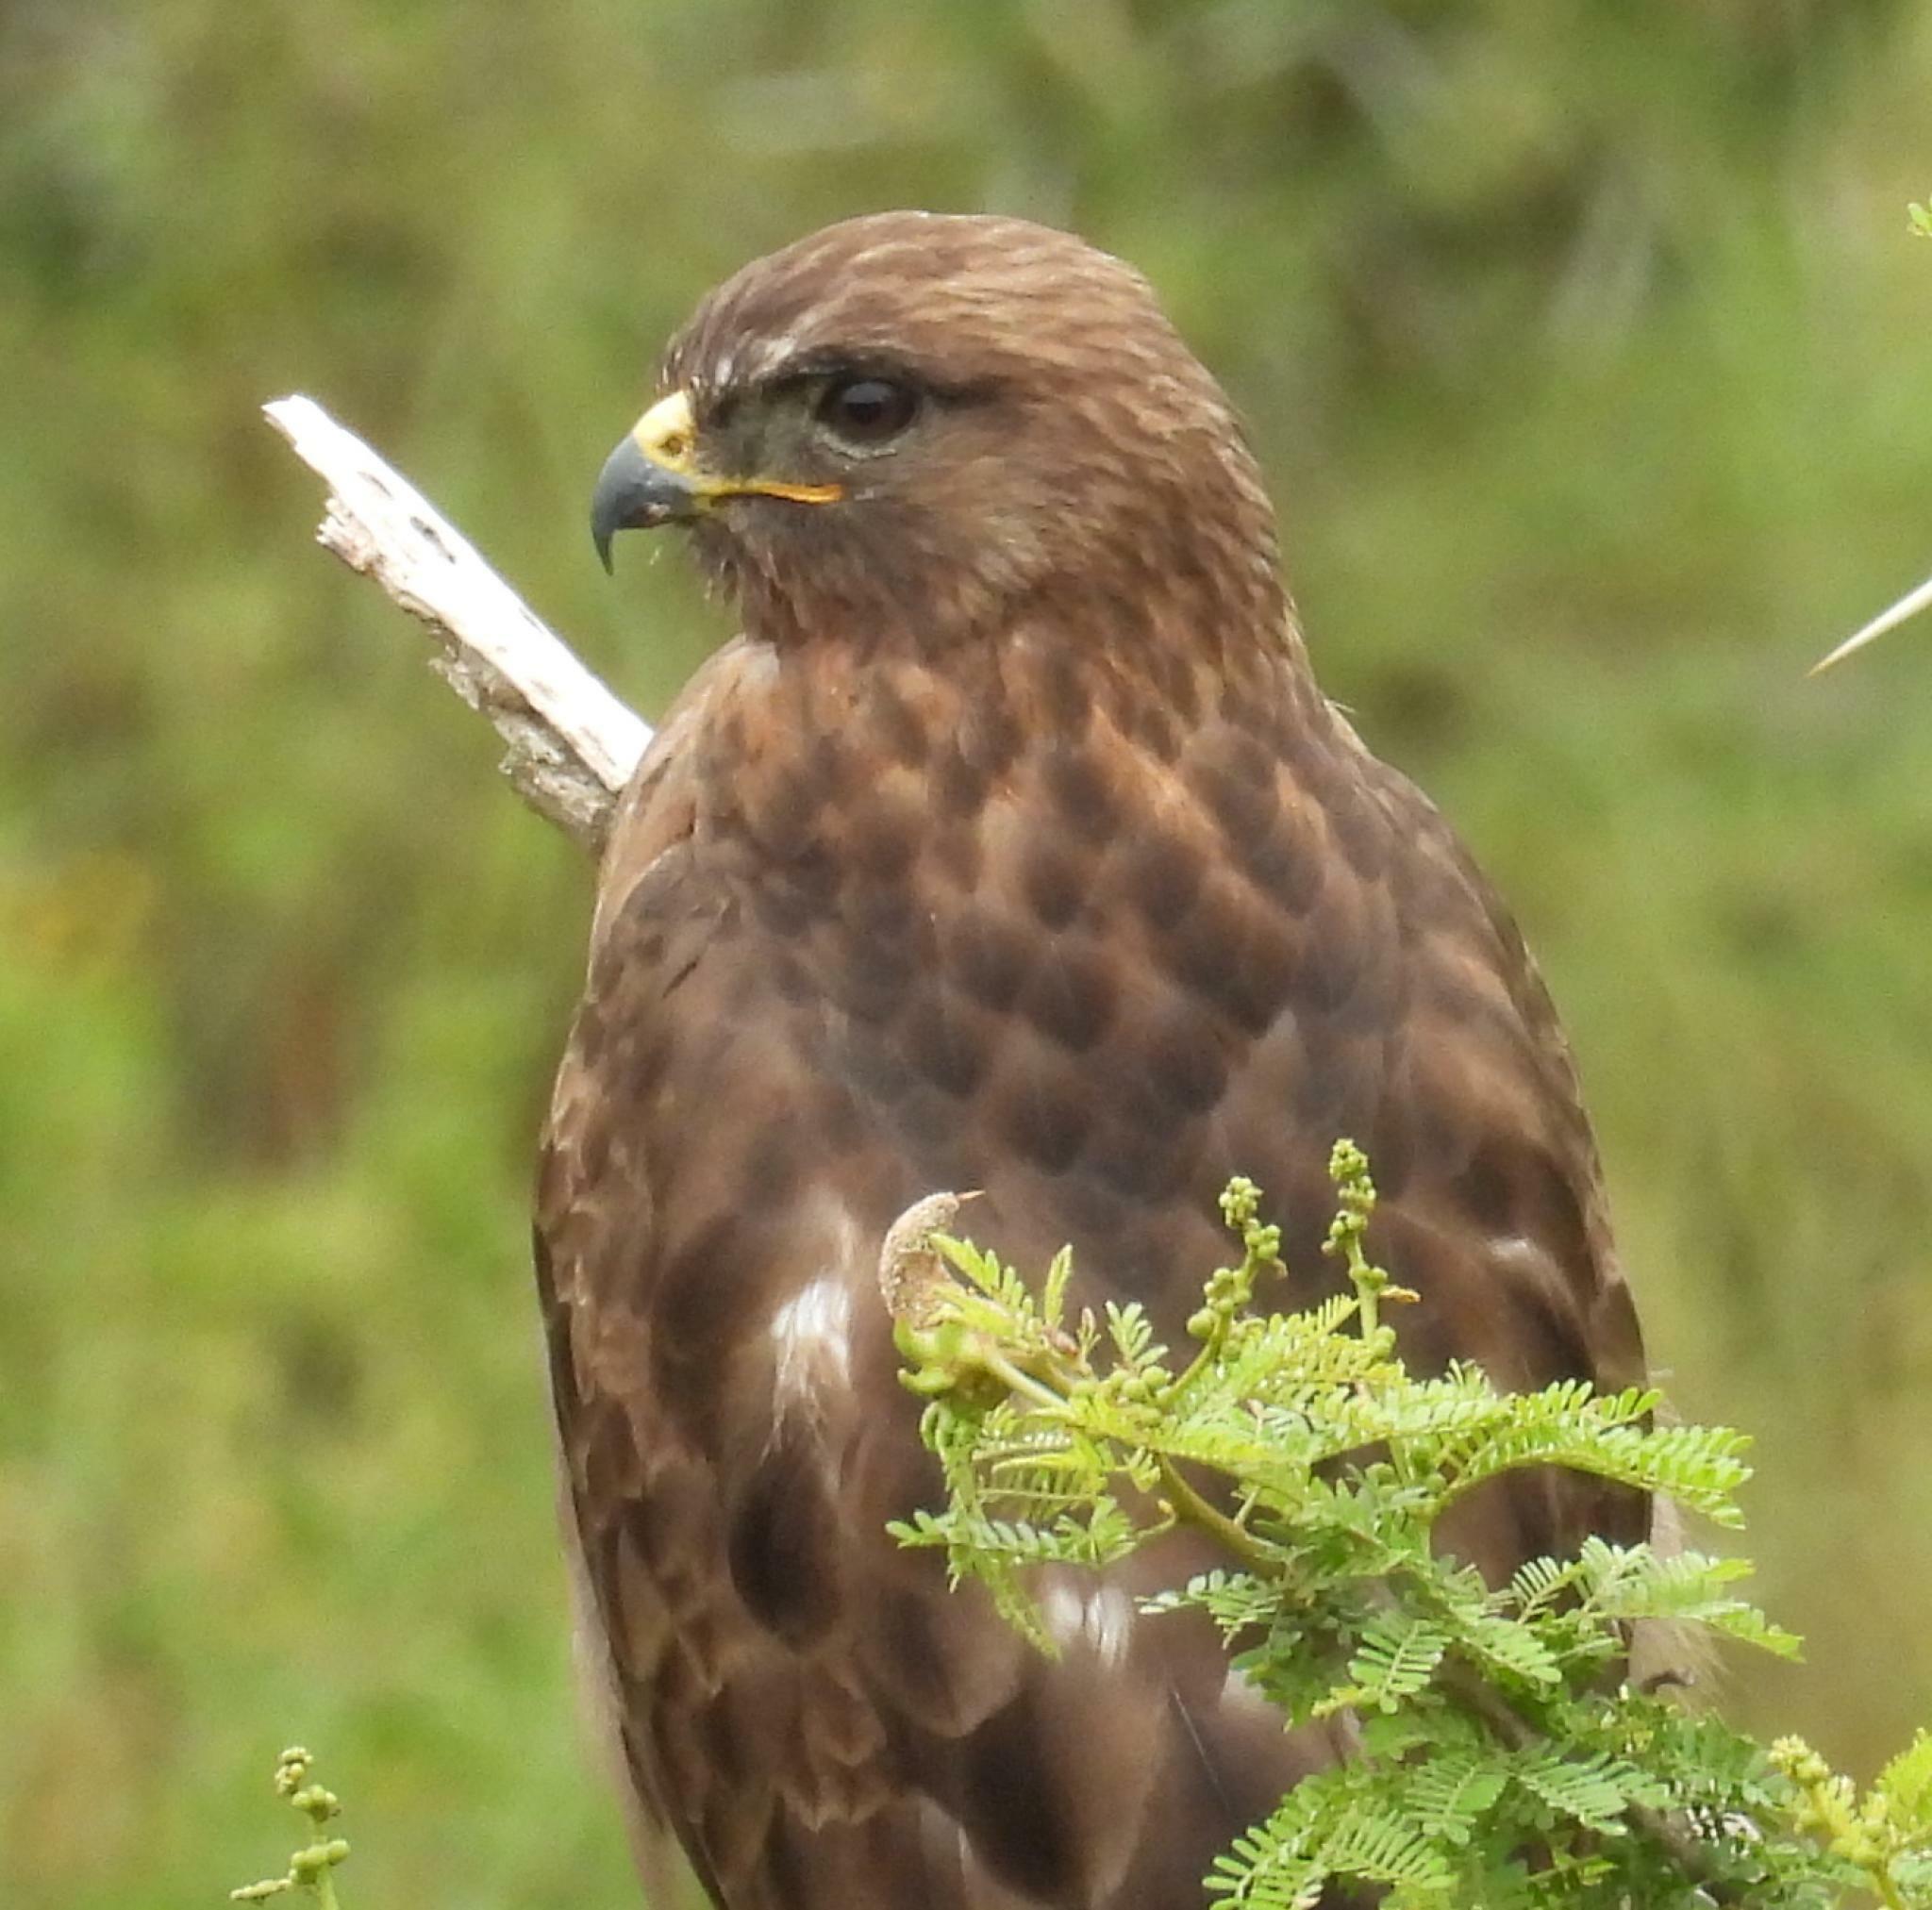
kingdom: Animalia
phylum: Chordata
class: Aves
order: Accipitriformes
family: Accipitridae
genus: Buteo
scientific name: Buteo buteo
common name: Common buzzard
